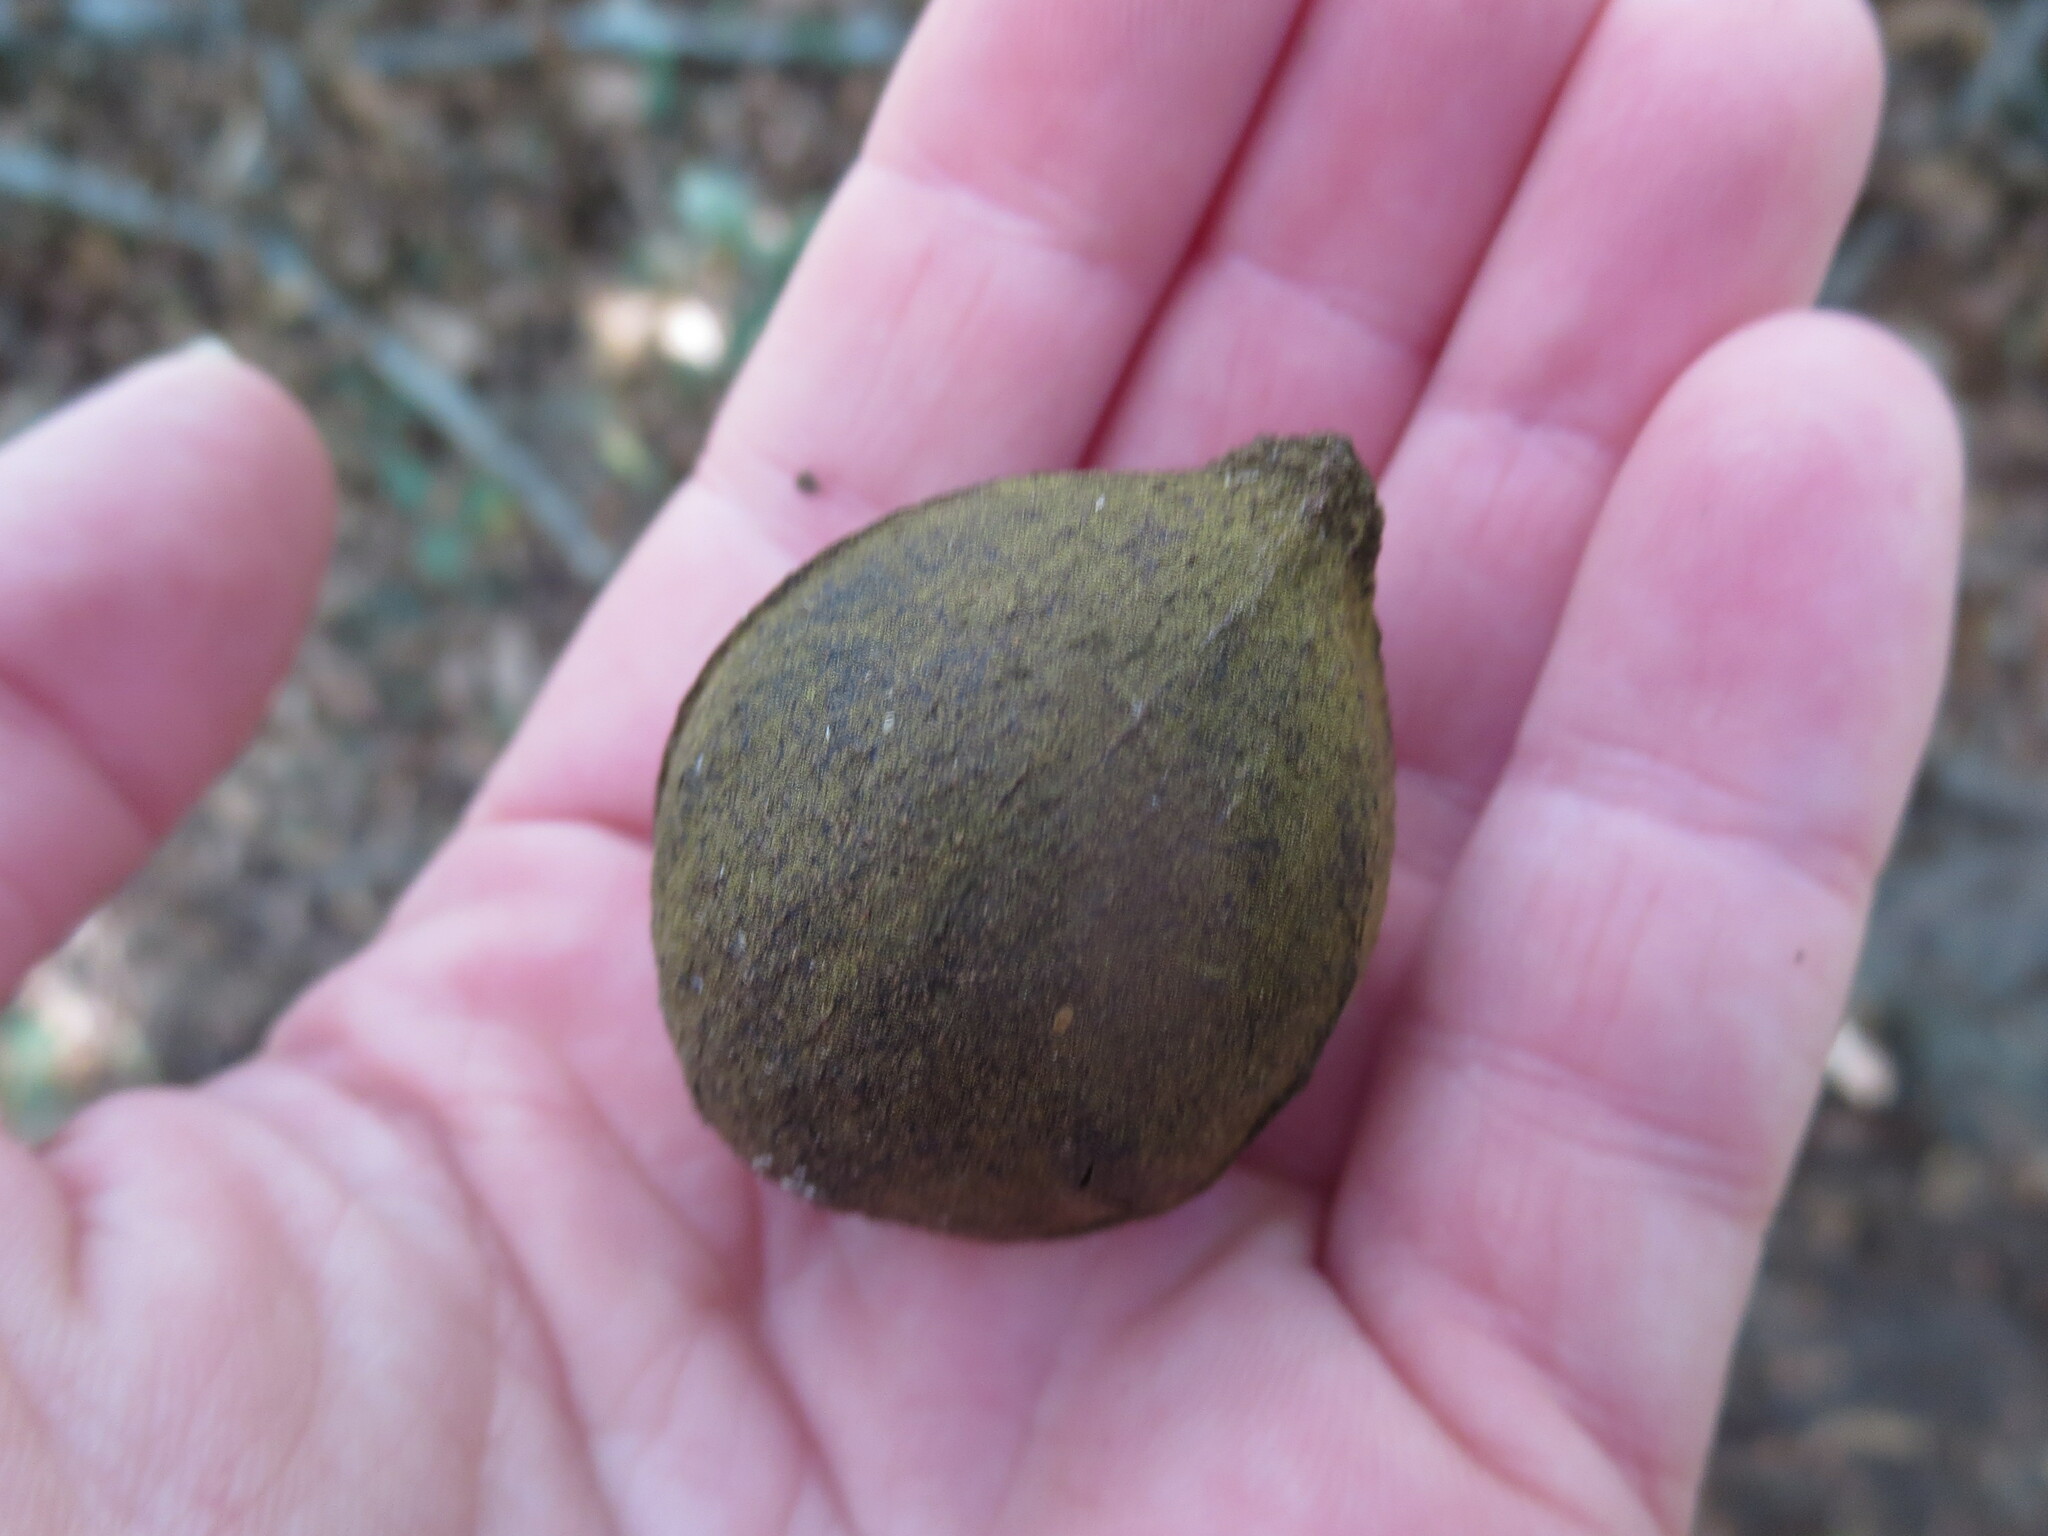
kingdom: Plantae
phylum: Tracheophyta
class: Magnoliopsida
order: Fagales
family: Juglandaceae
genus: Carya
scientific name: Carya glabra
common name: Pignut hickory
